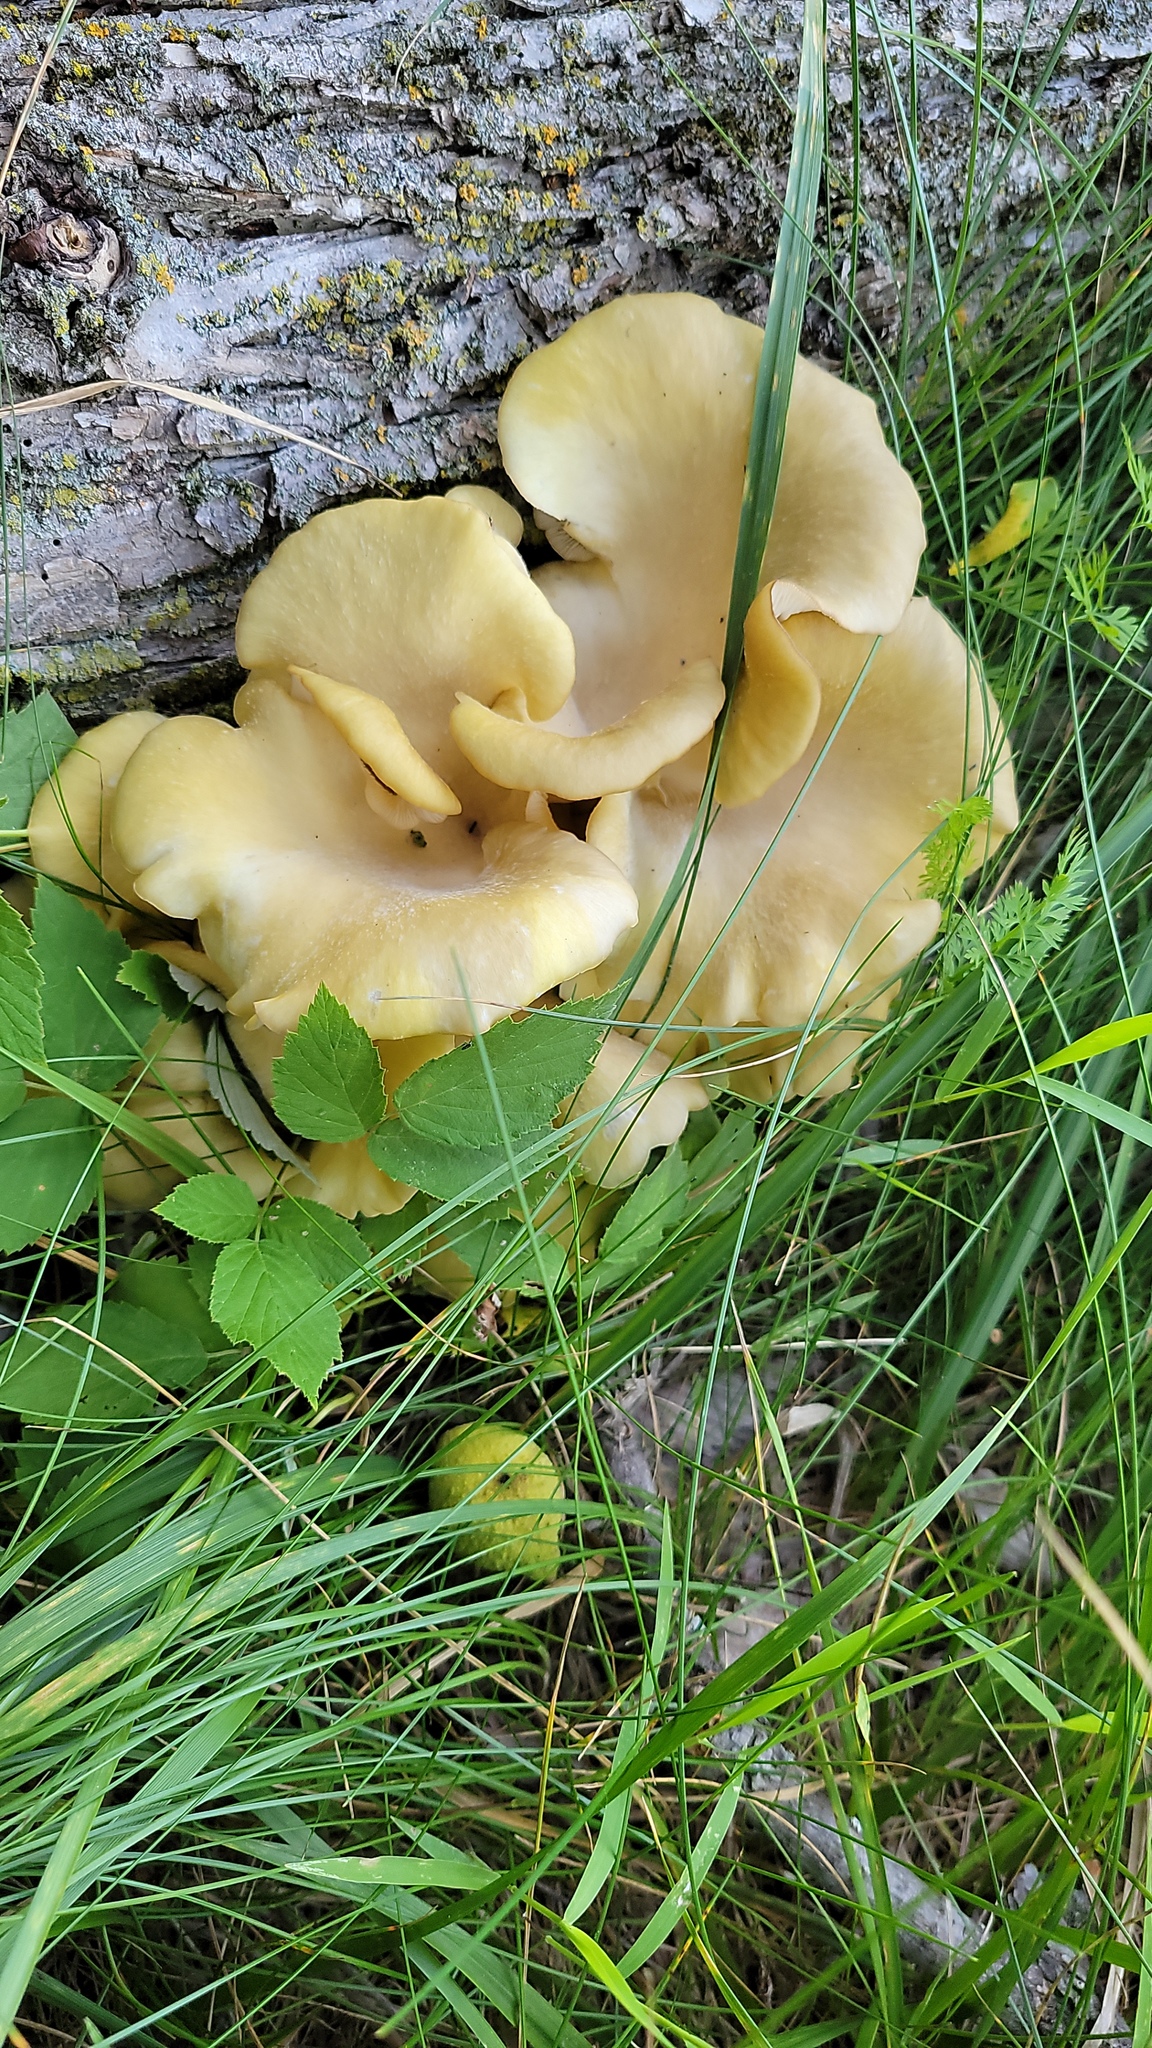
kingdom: Fungi
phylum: Basidiomycota
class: Agaricomycetes
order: Agaricales
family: Pleurotaceae
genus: Pleurotus
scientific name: Pleurotus citrinopileatus
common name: Golden oyster mushroom
